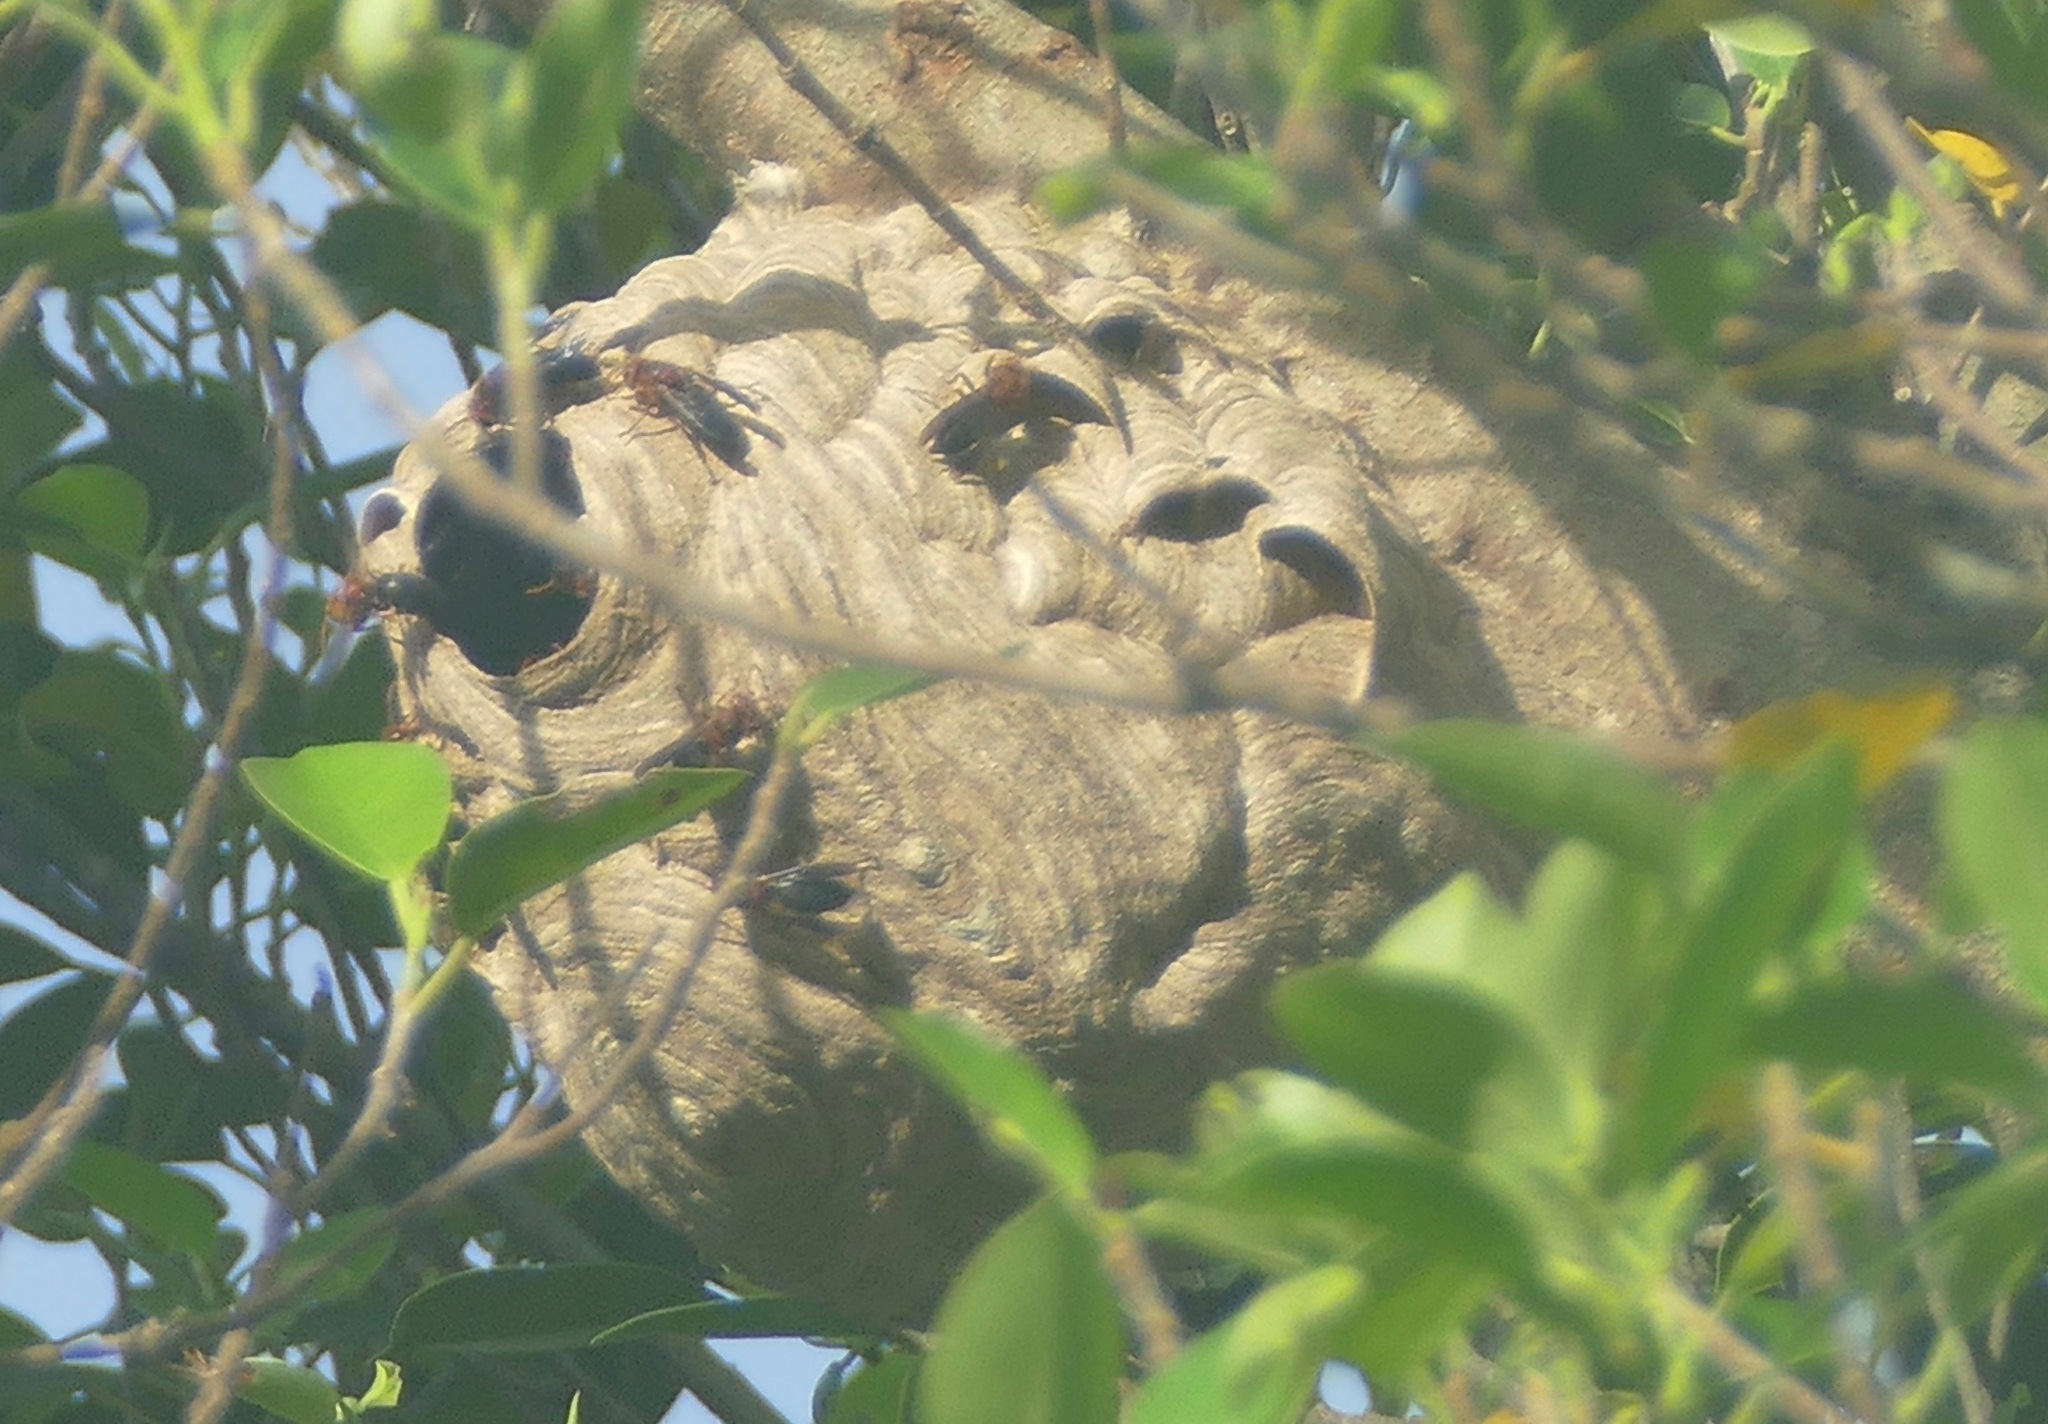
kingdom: Animalia
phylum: Arthropoda
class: Insecta
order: Hymenoptera
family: Vespidae
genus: Vespa
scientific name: Vespa basalis
